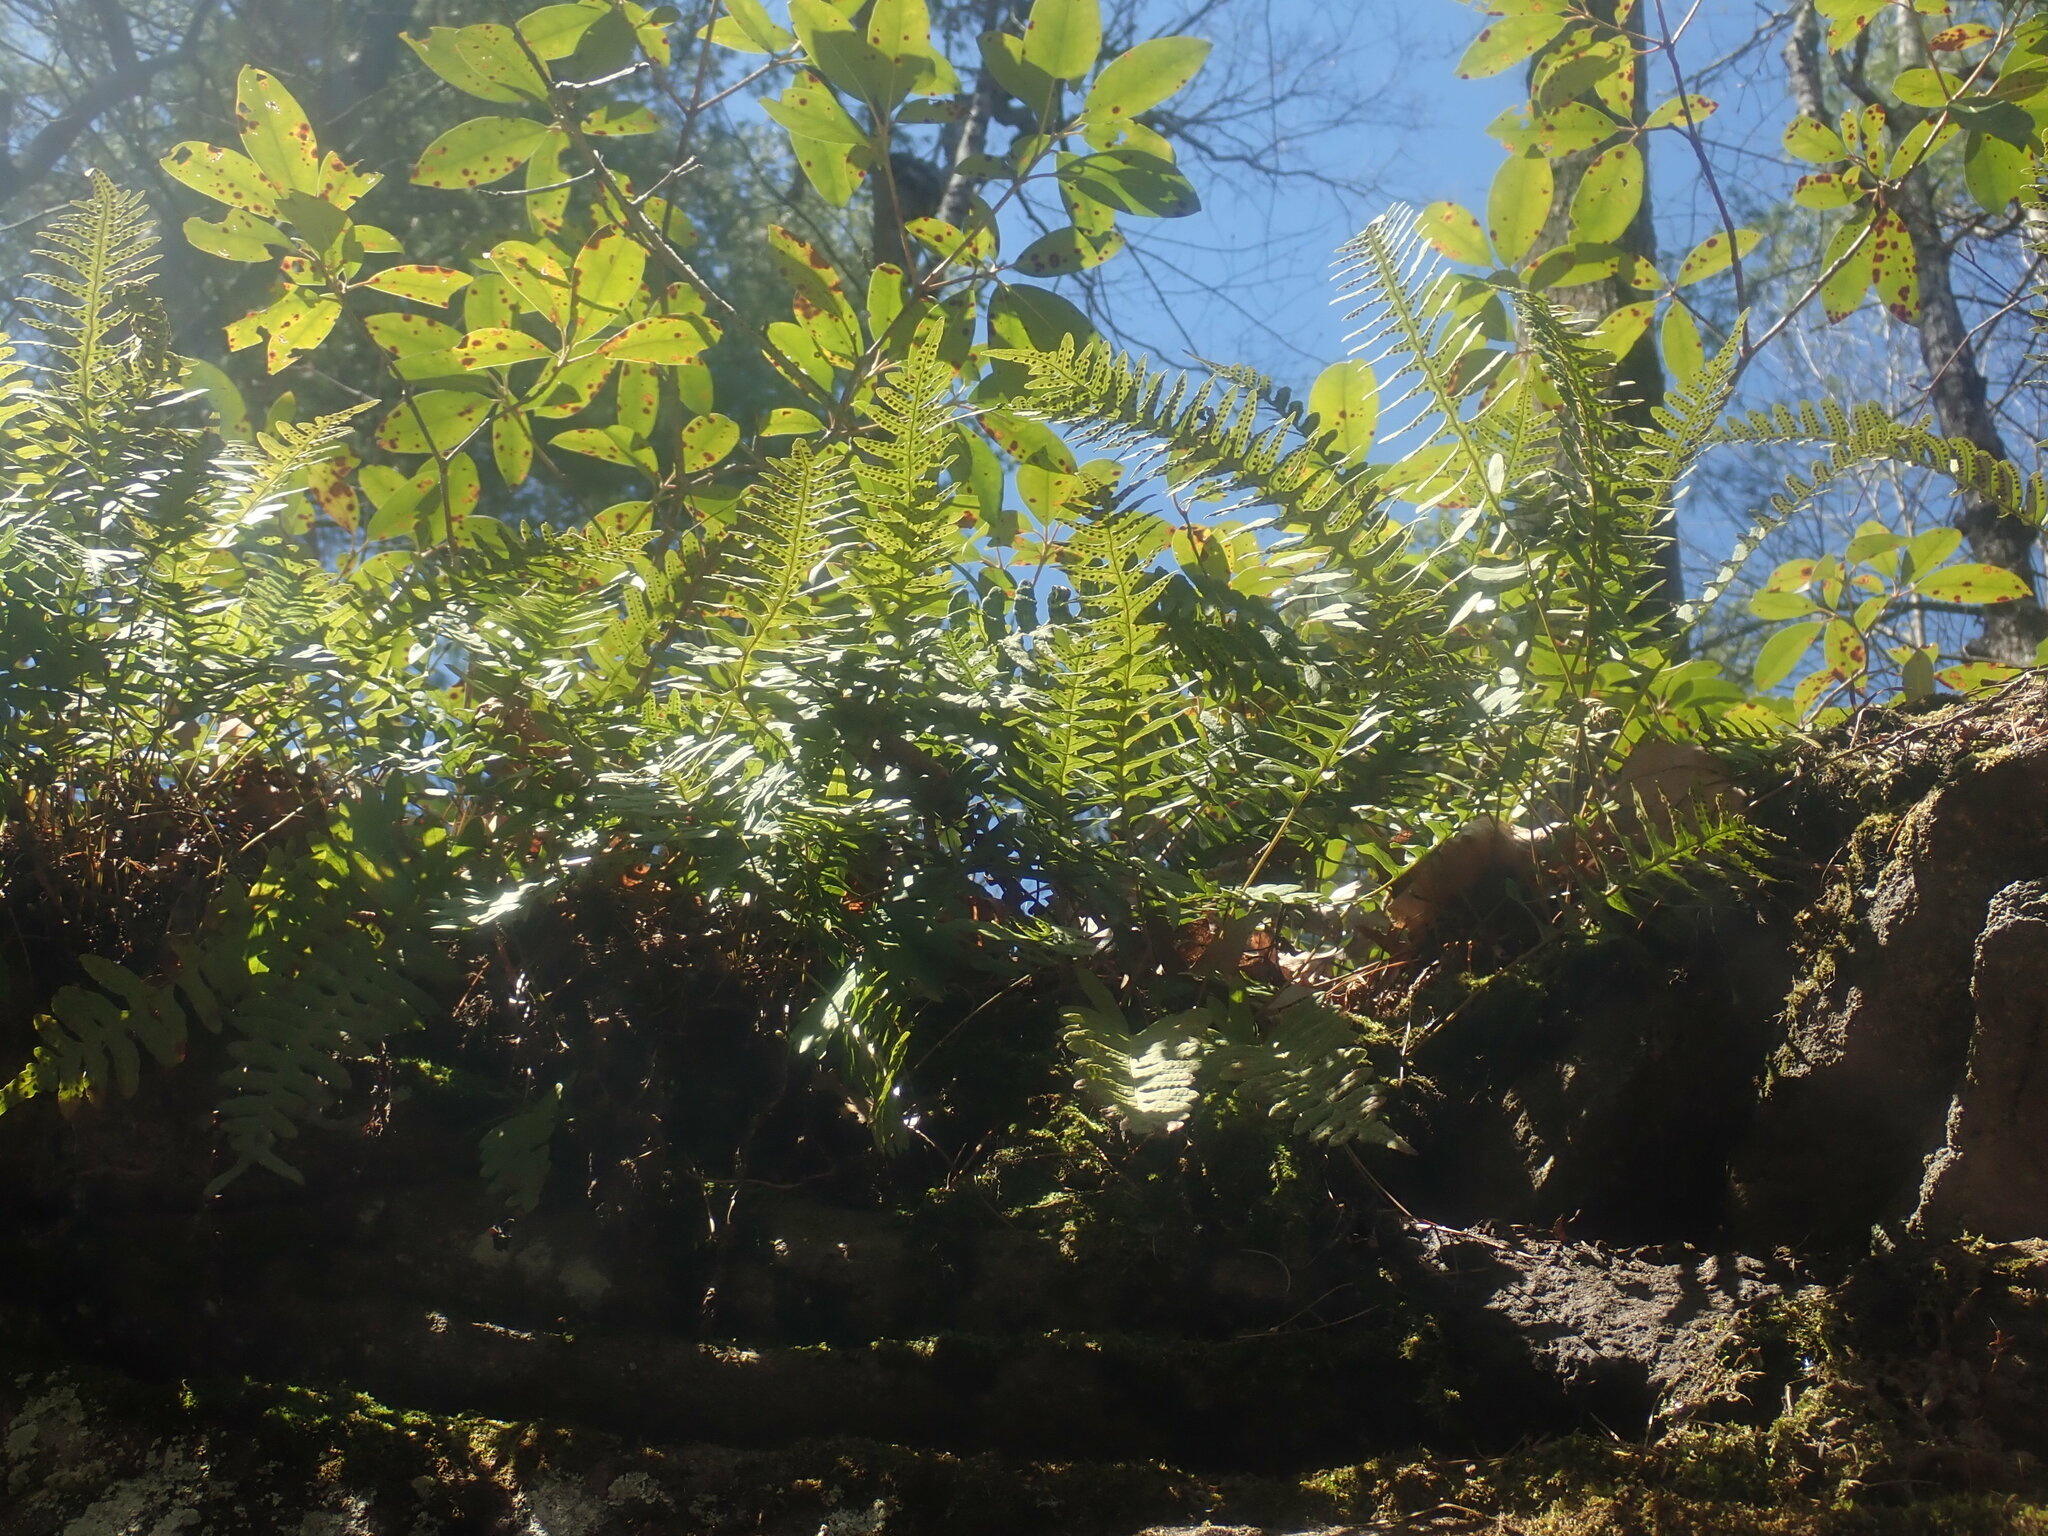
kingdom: Plantae
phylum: Tracheophyta
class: Polypodiopsida
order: Polypodiales
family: Polypodiaceae
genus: Polypodium
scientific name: Polypodium
